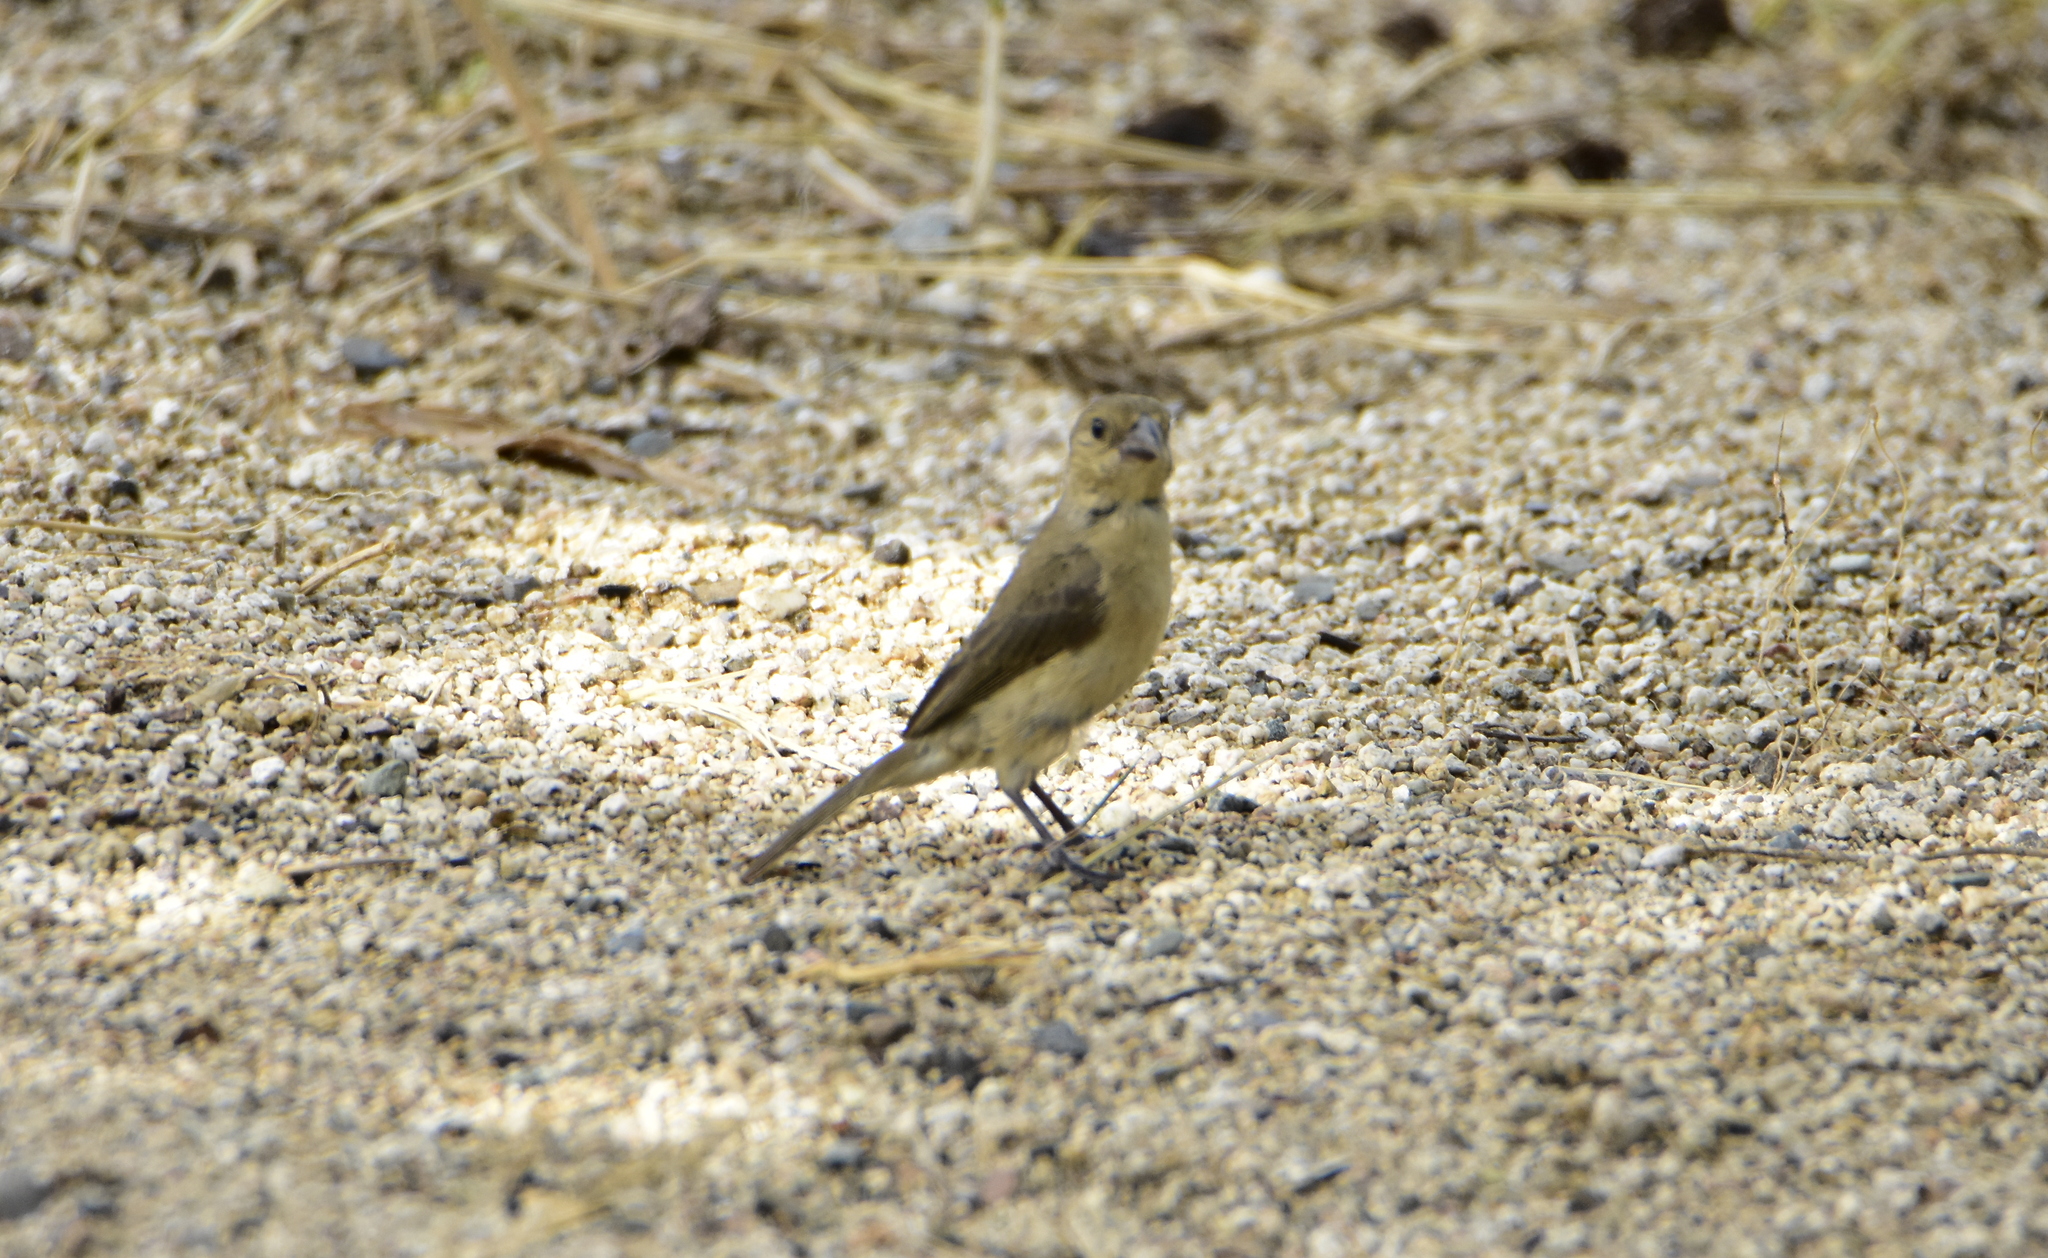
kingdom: Animalia
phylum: Chordata
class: Aves
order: Passeriformes
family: Thraupidae
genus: Sporophila
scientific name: Sporophila torqueola
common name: White-collared seedeater
